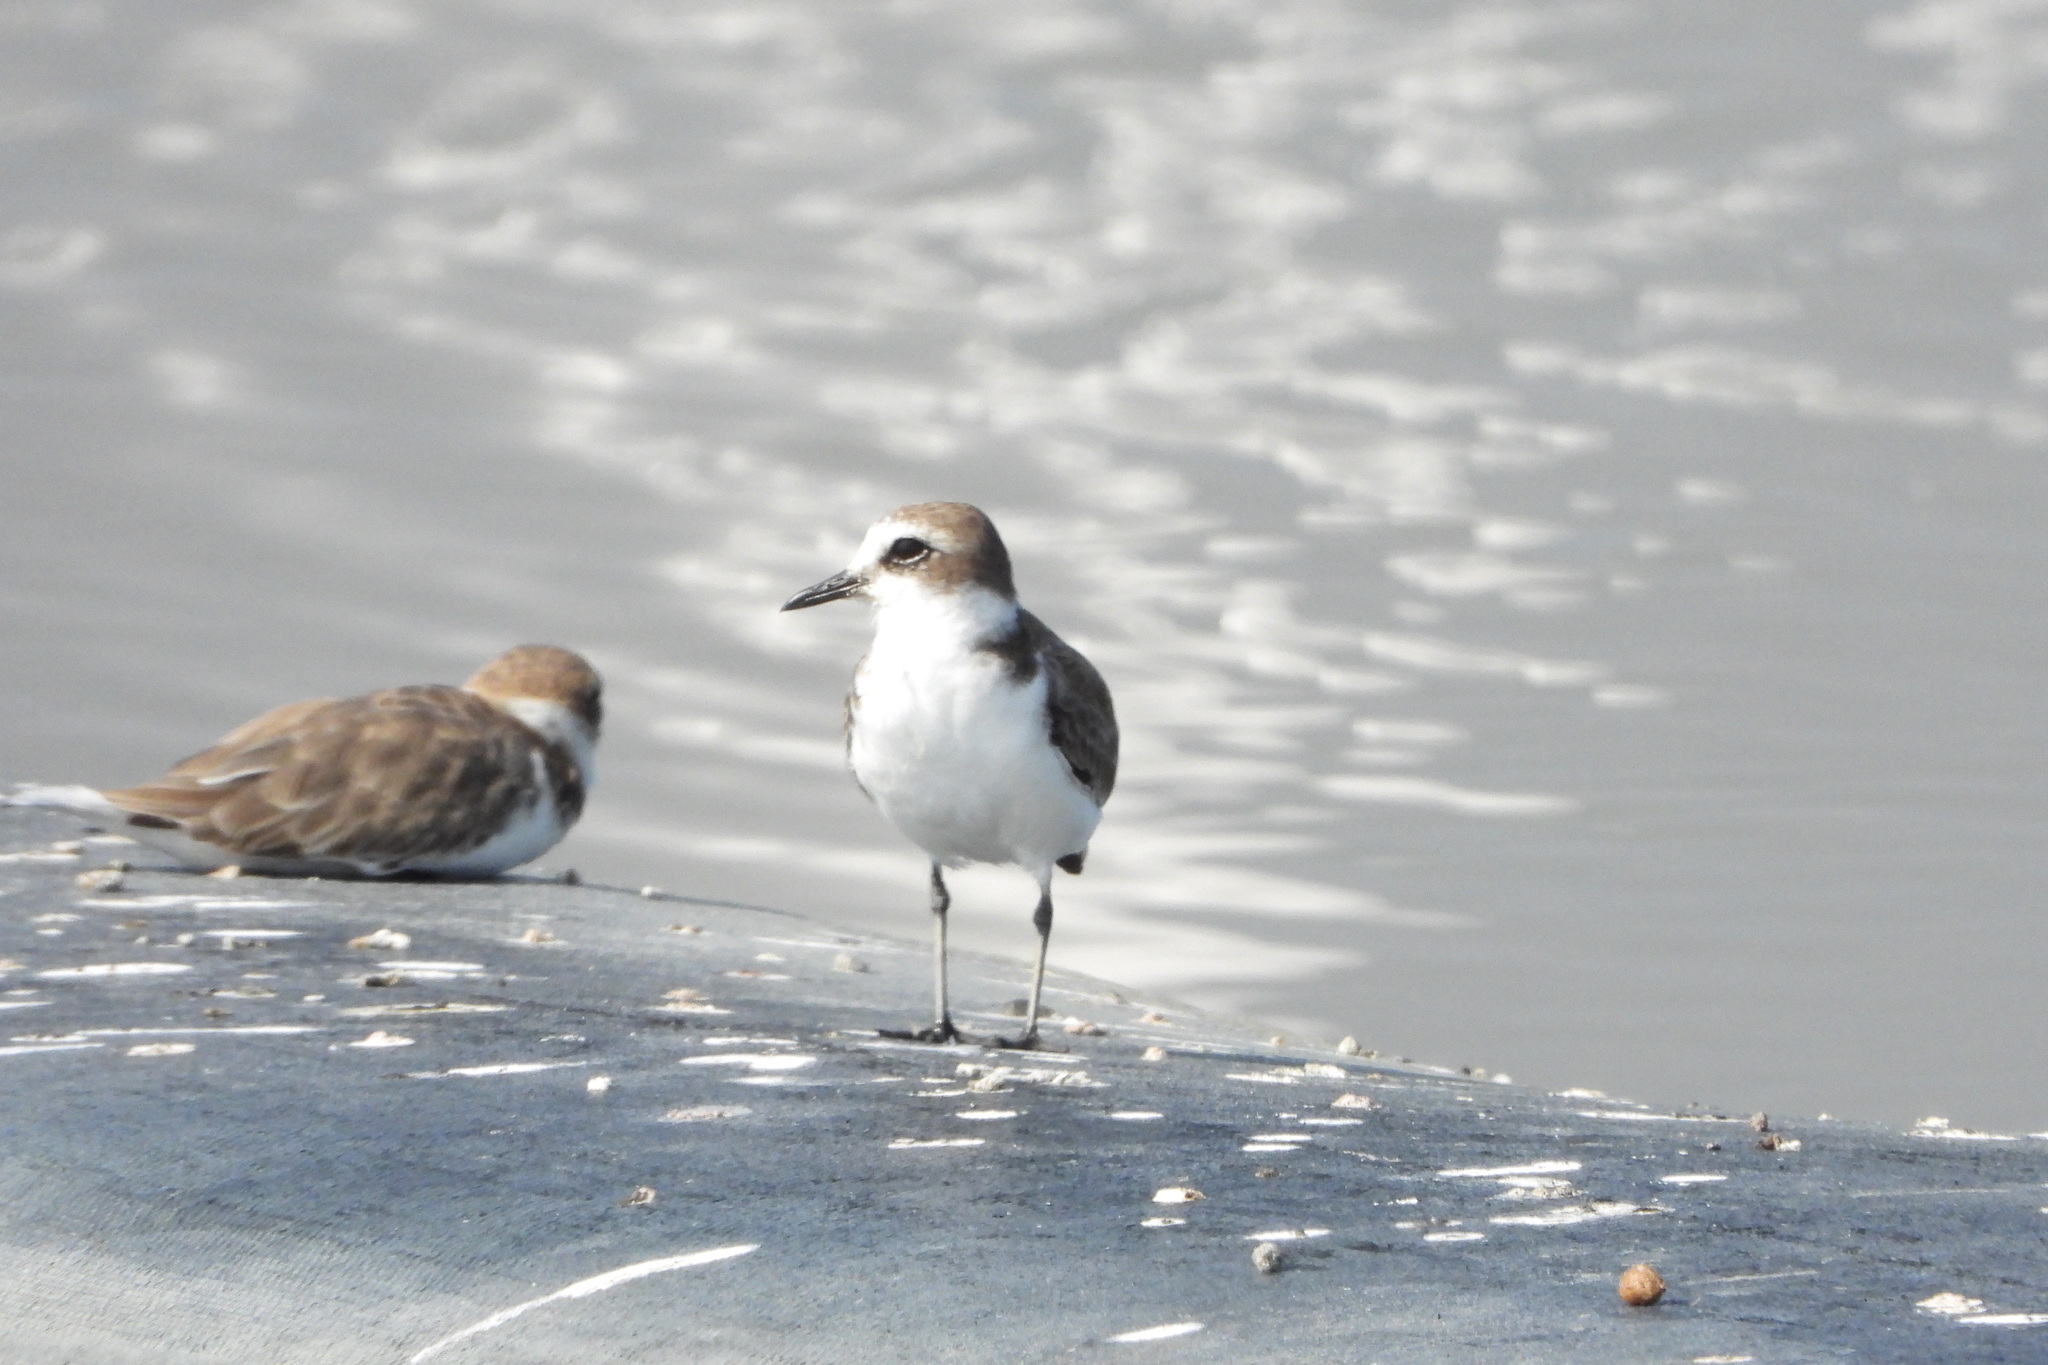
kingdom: Animalia
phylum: Chordata
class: Aves
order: Charadriiformes
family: Charadriidae
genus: Charadrius
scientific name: Charadrius alexandrinus
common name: Kentish plover
